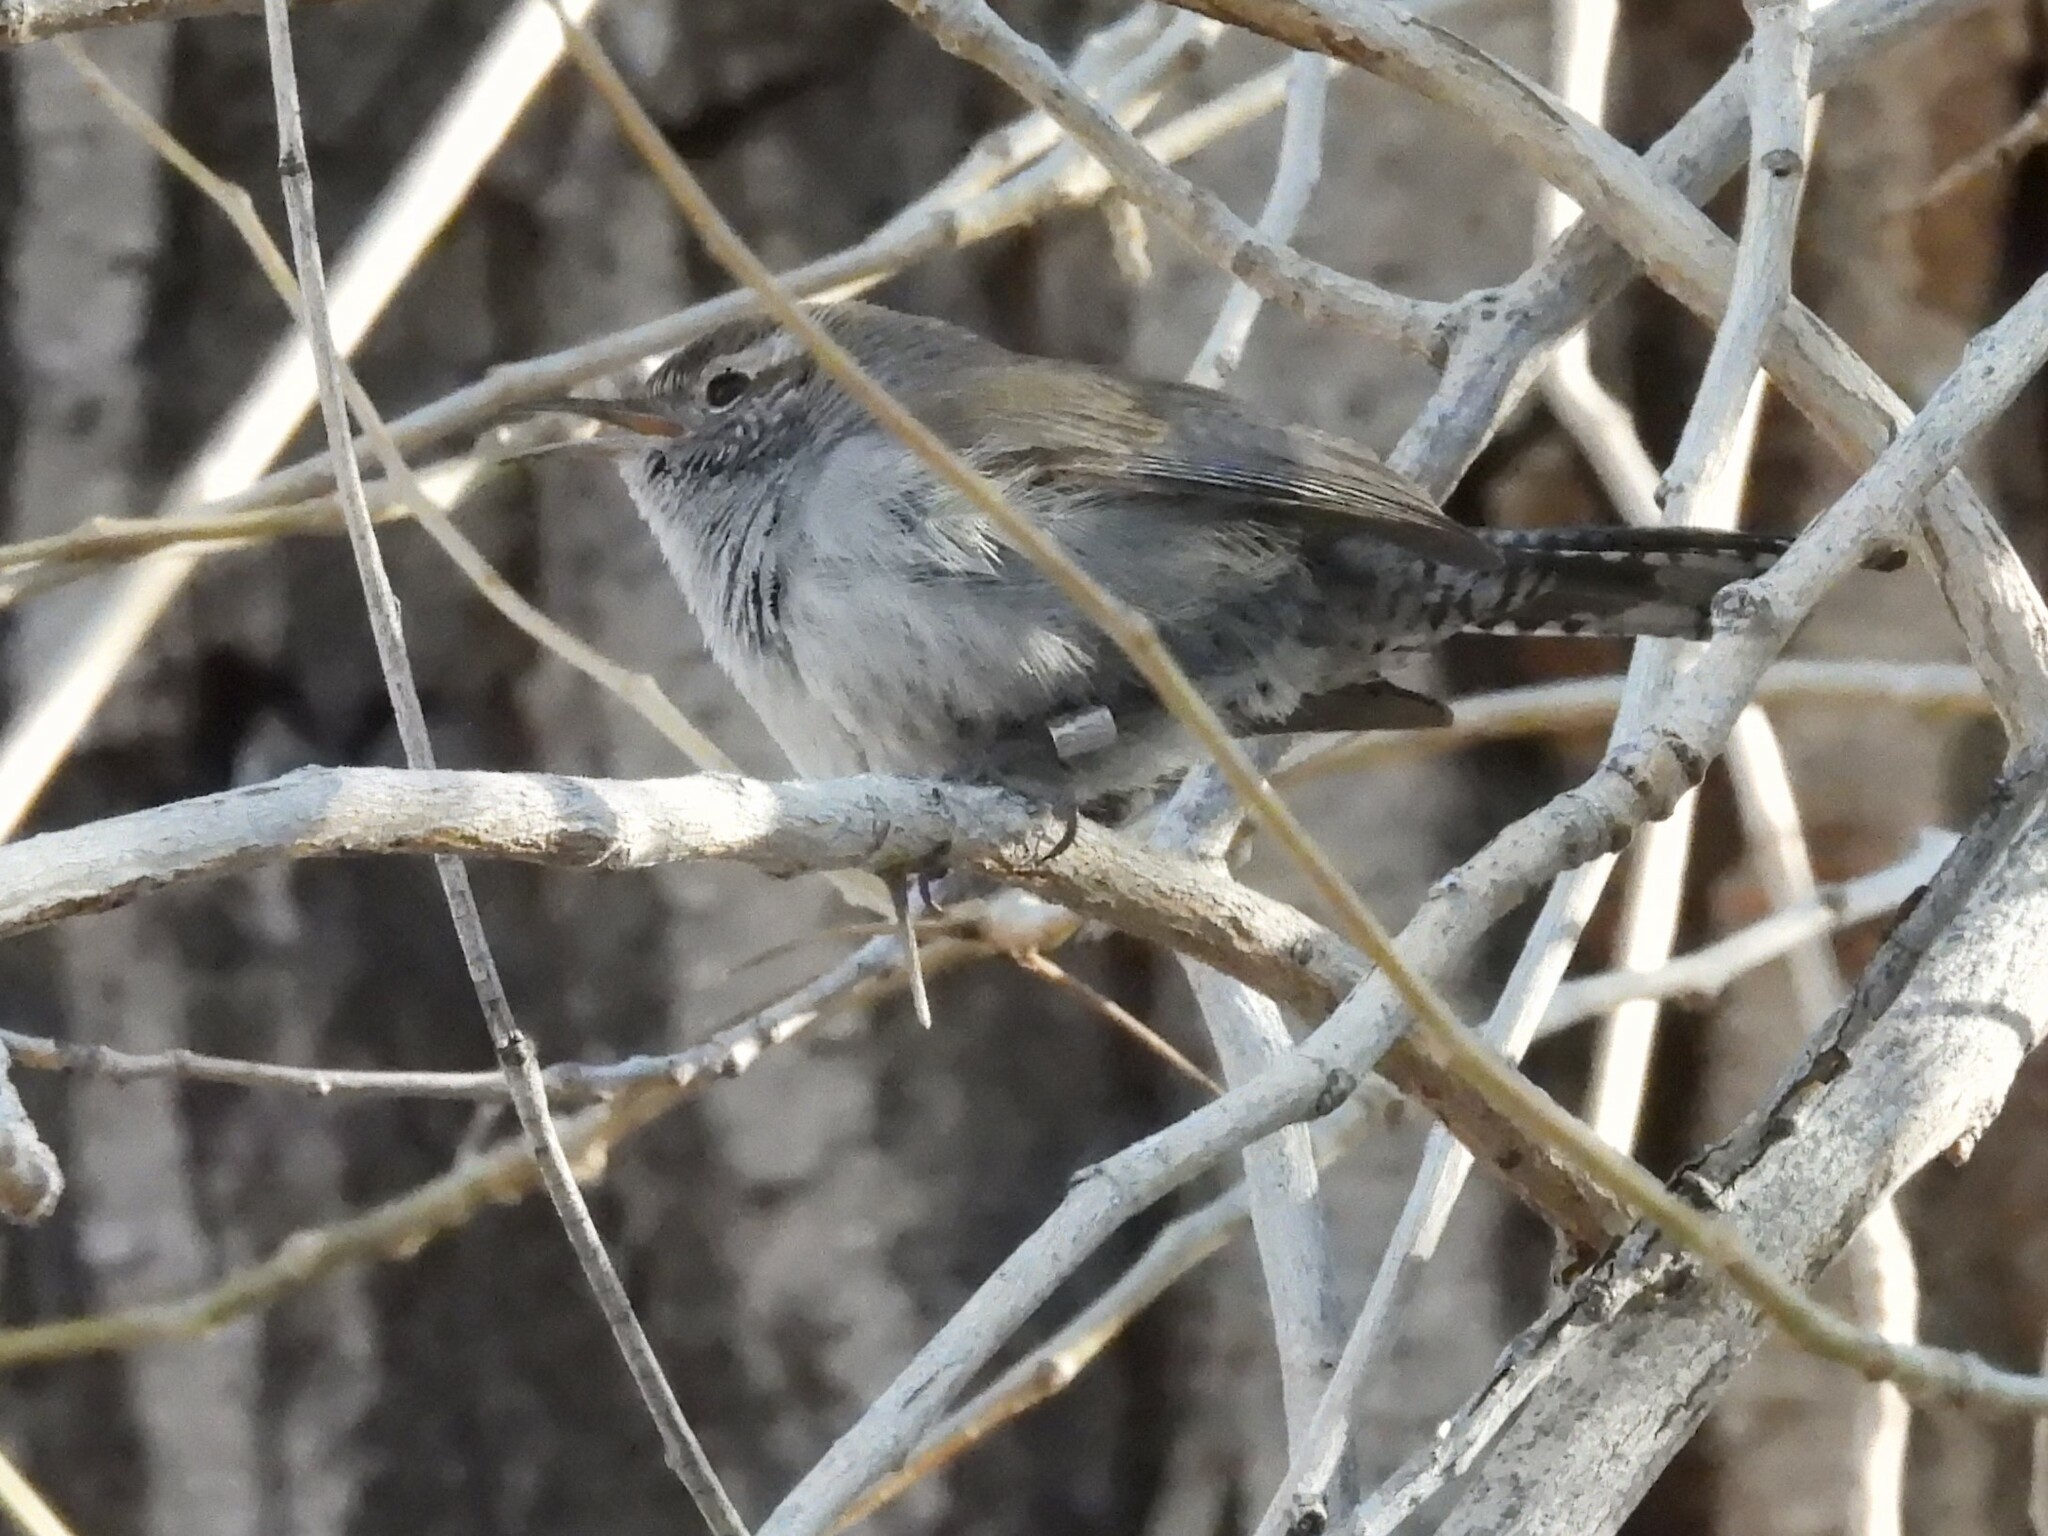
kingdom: Animalia
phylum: Chordata
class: Aves
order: Passeriformes
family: Troglodytidae
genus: Thryomanes
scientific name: Thryomanes bewickii
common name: Bewick's wren
